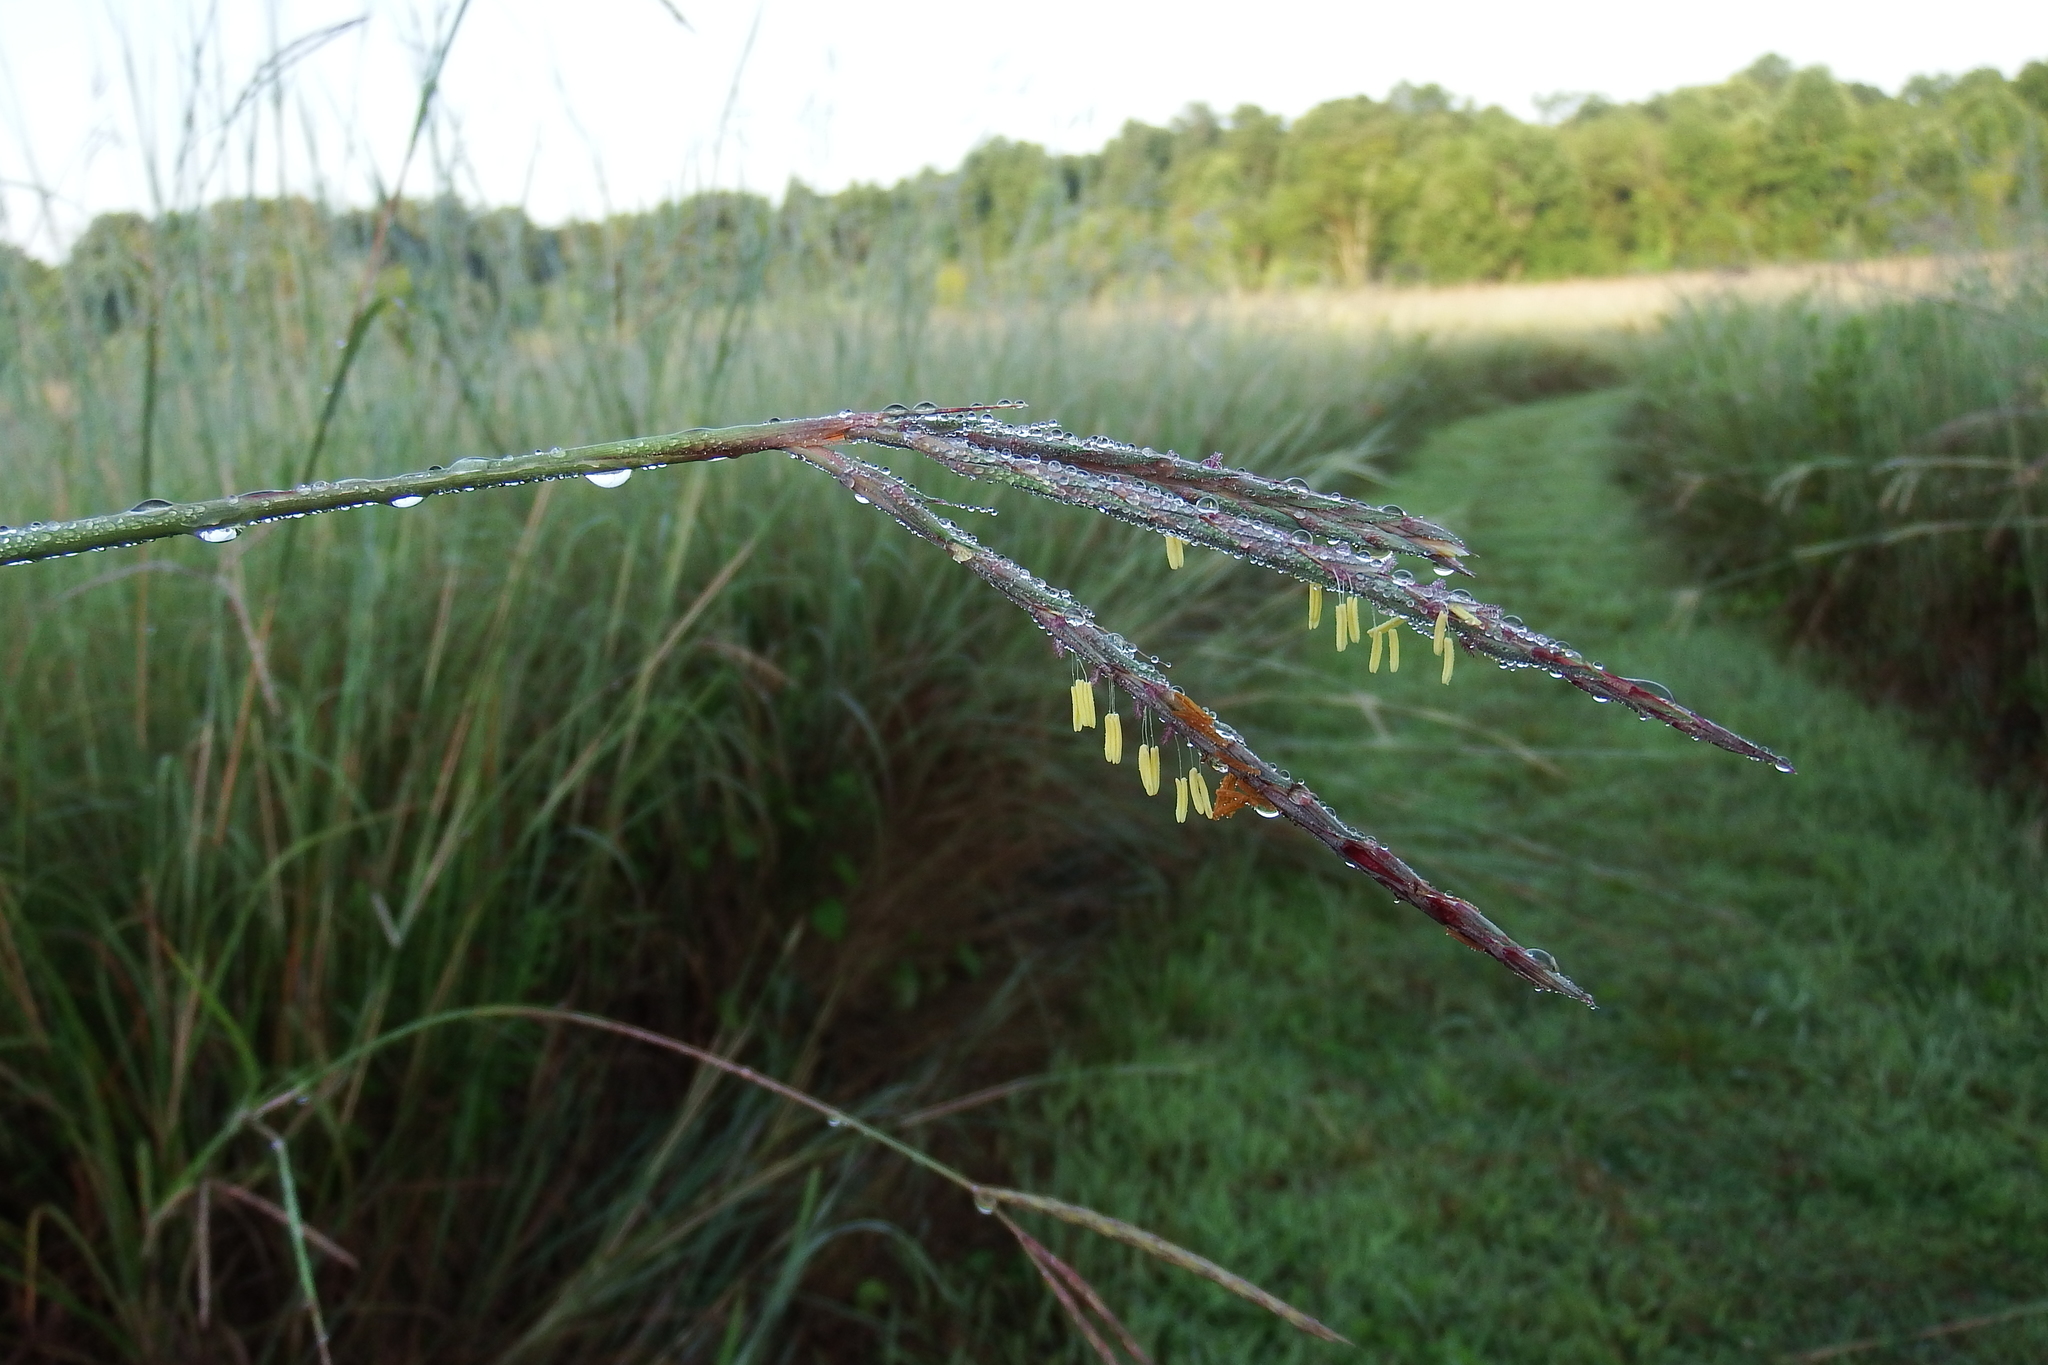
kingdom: Plantae
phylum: Tracheophyta
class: Liliopsida
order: Poales
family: Poaceae
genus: Andropogon
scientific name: Andropogon gerardi
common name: Big bluestem
